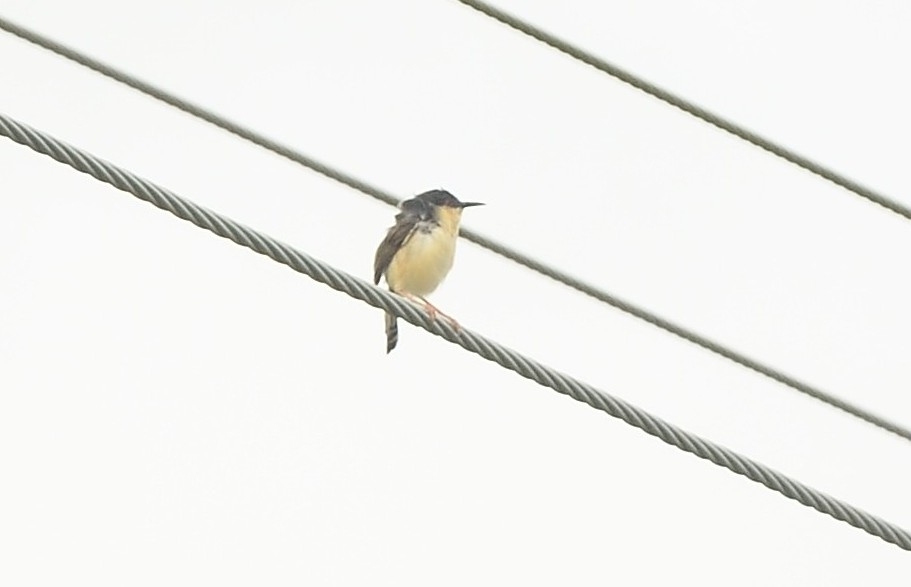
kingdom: Animalia
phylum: Chordata
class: Aves
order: Passeriformes
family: Cisticolidae
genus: Prinia
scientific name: Prinia socialis
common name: Ashy prinia
